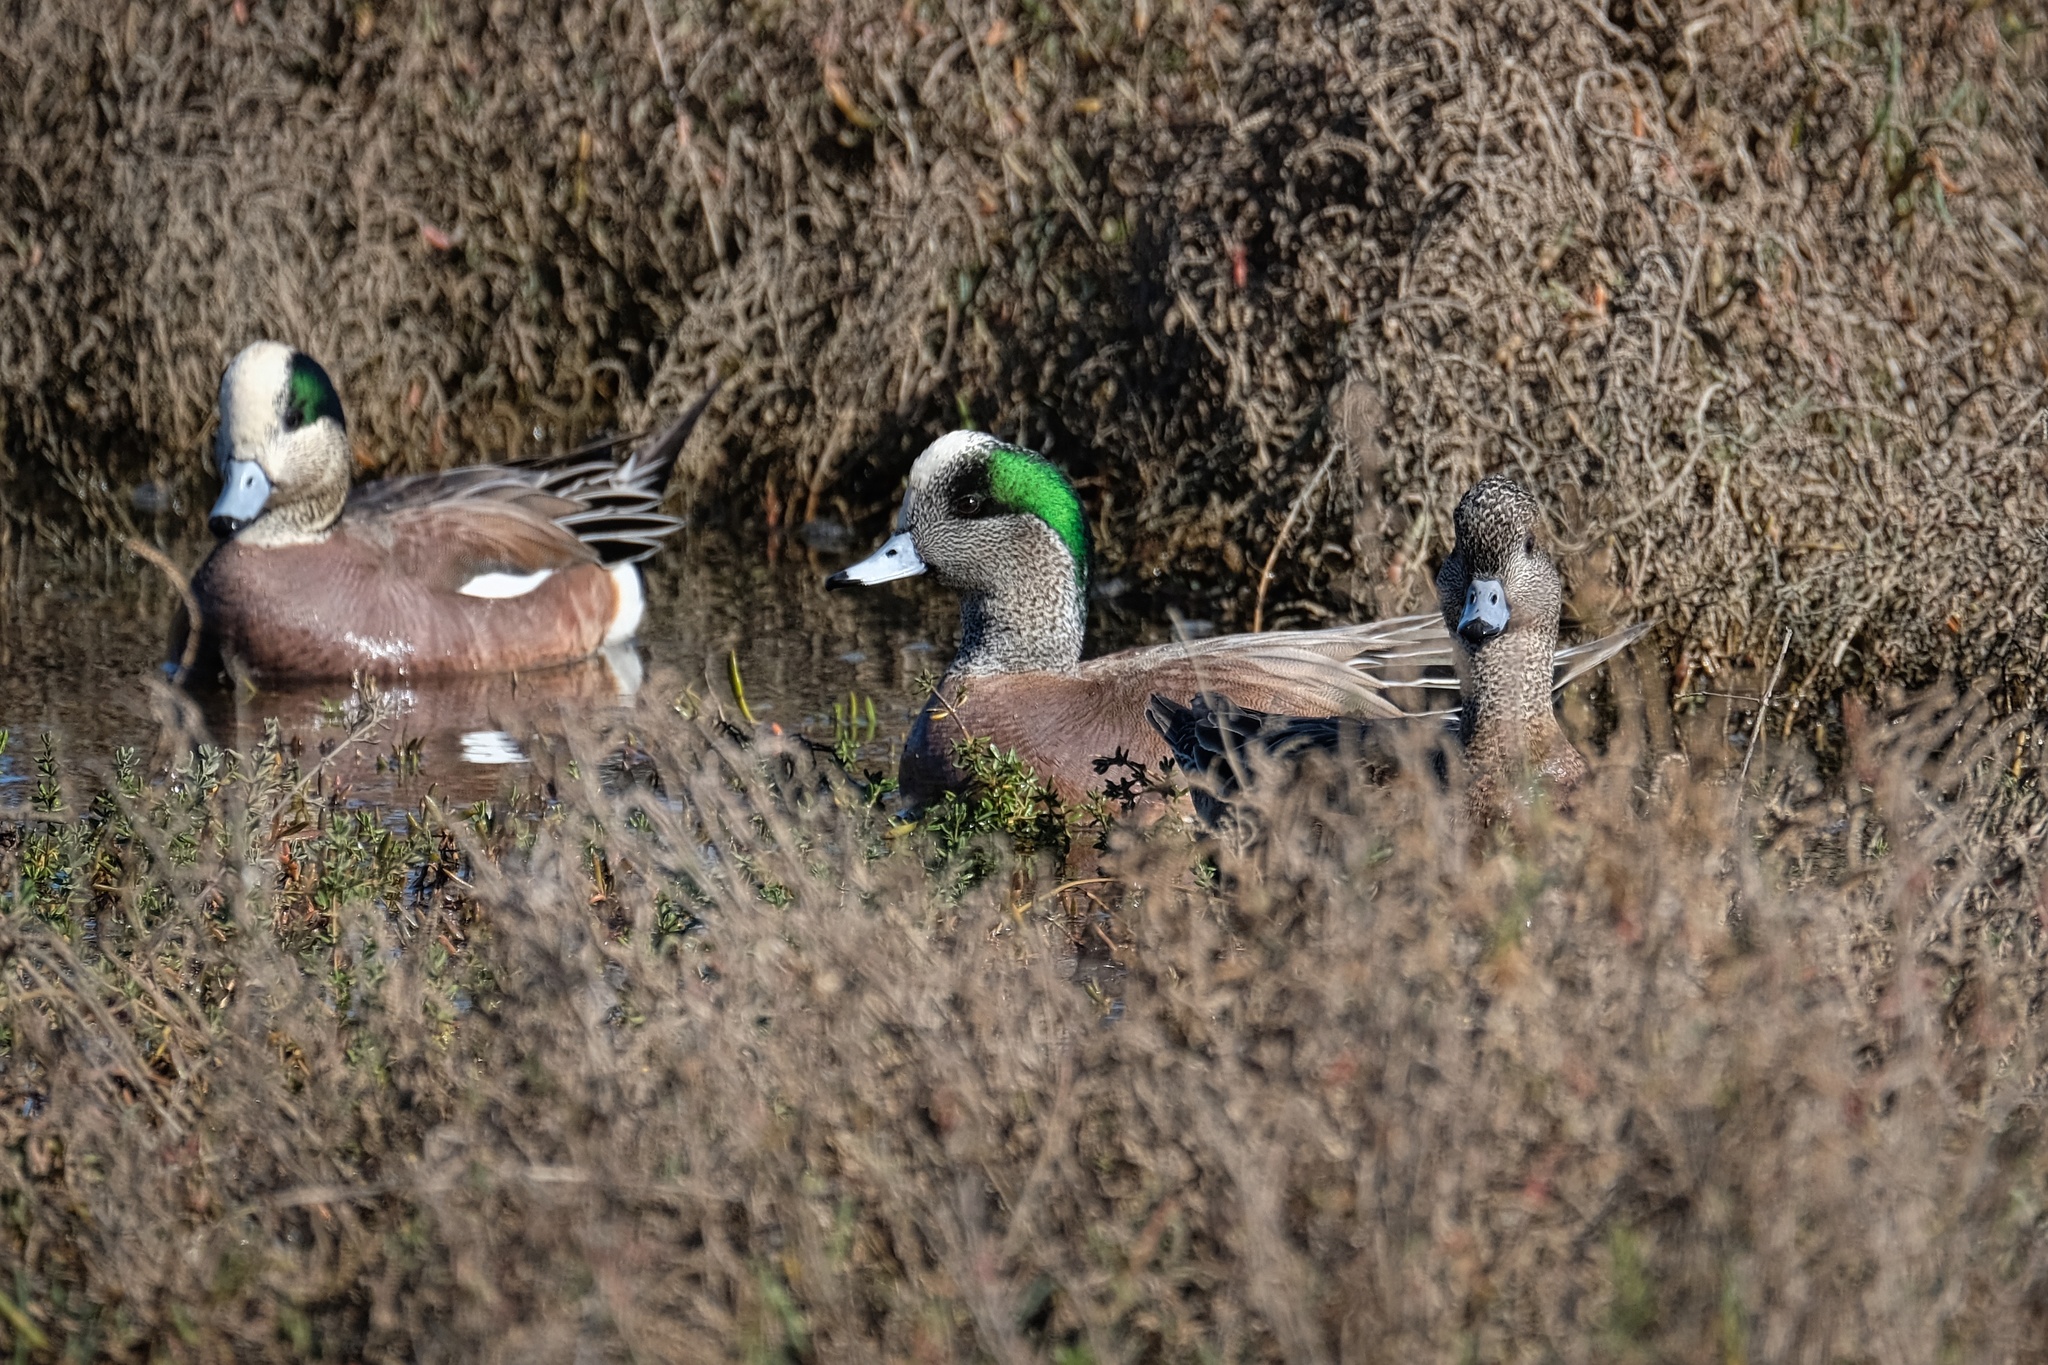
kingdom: Animalia
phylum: Chordata
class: Aves
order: Anseriformes
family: Anatidae
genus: Mareca
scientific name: Mareca americana
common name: American wigeon
